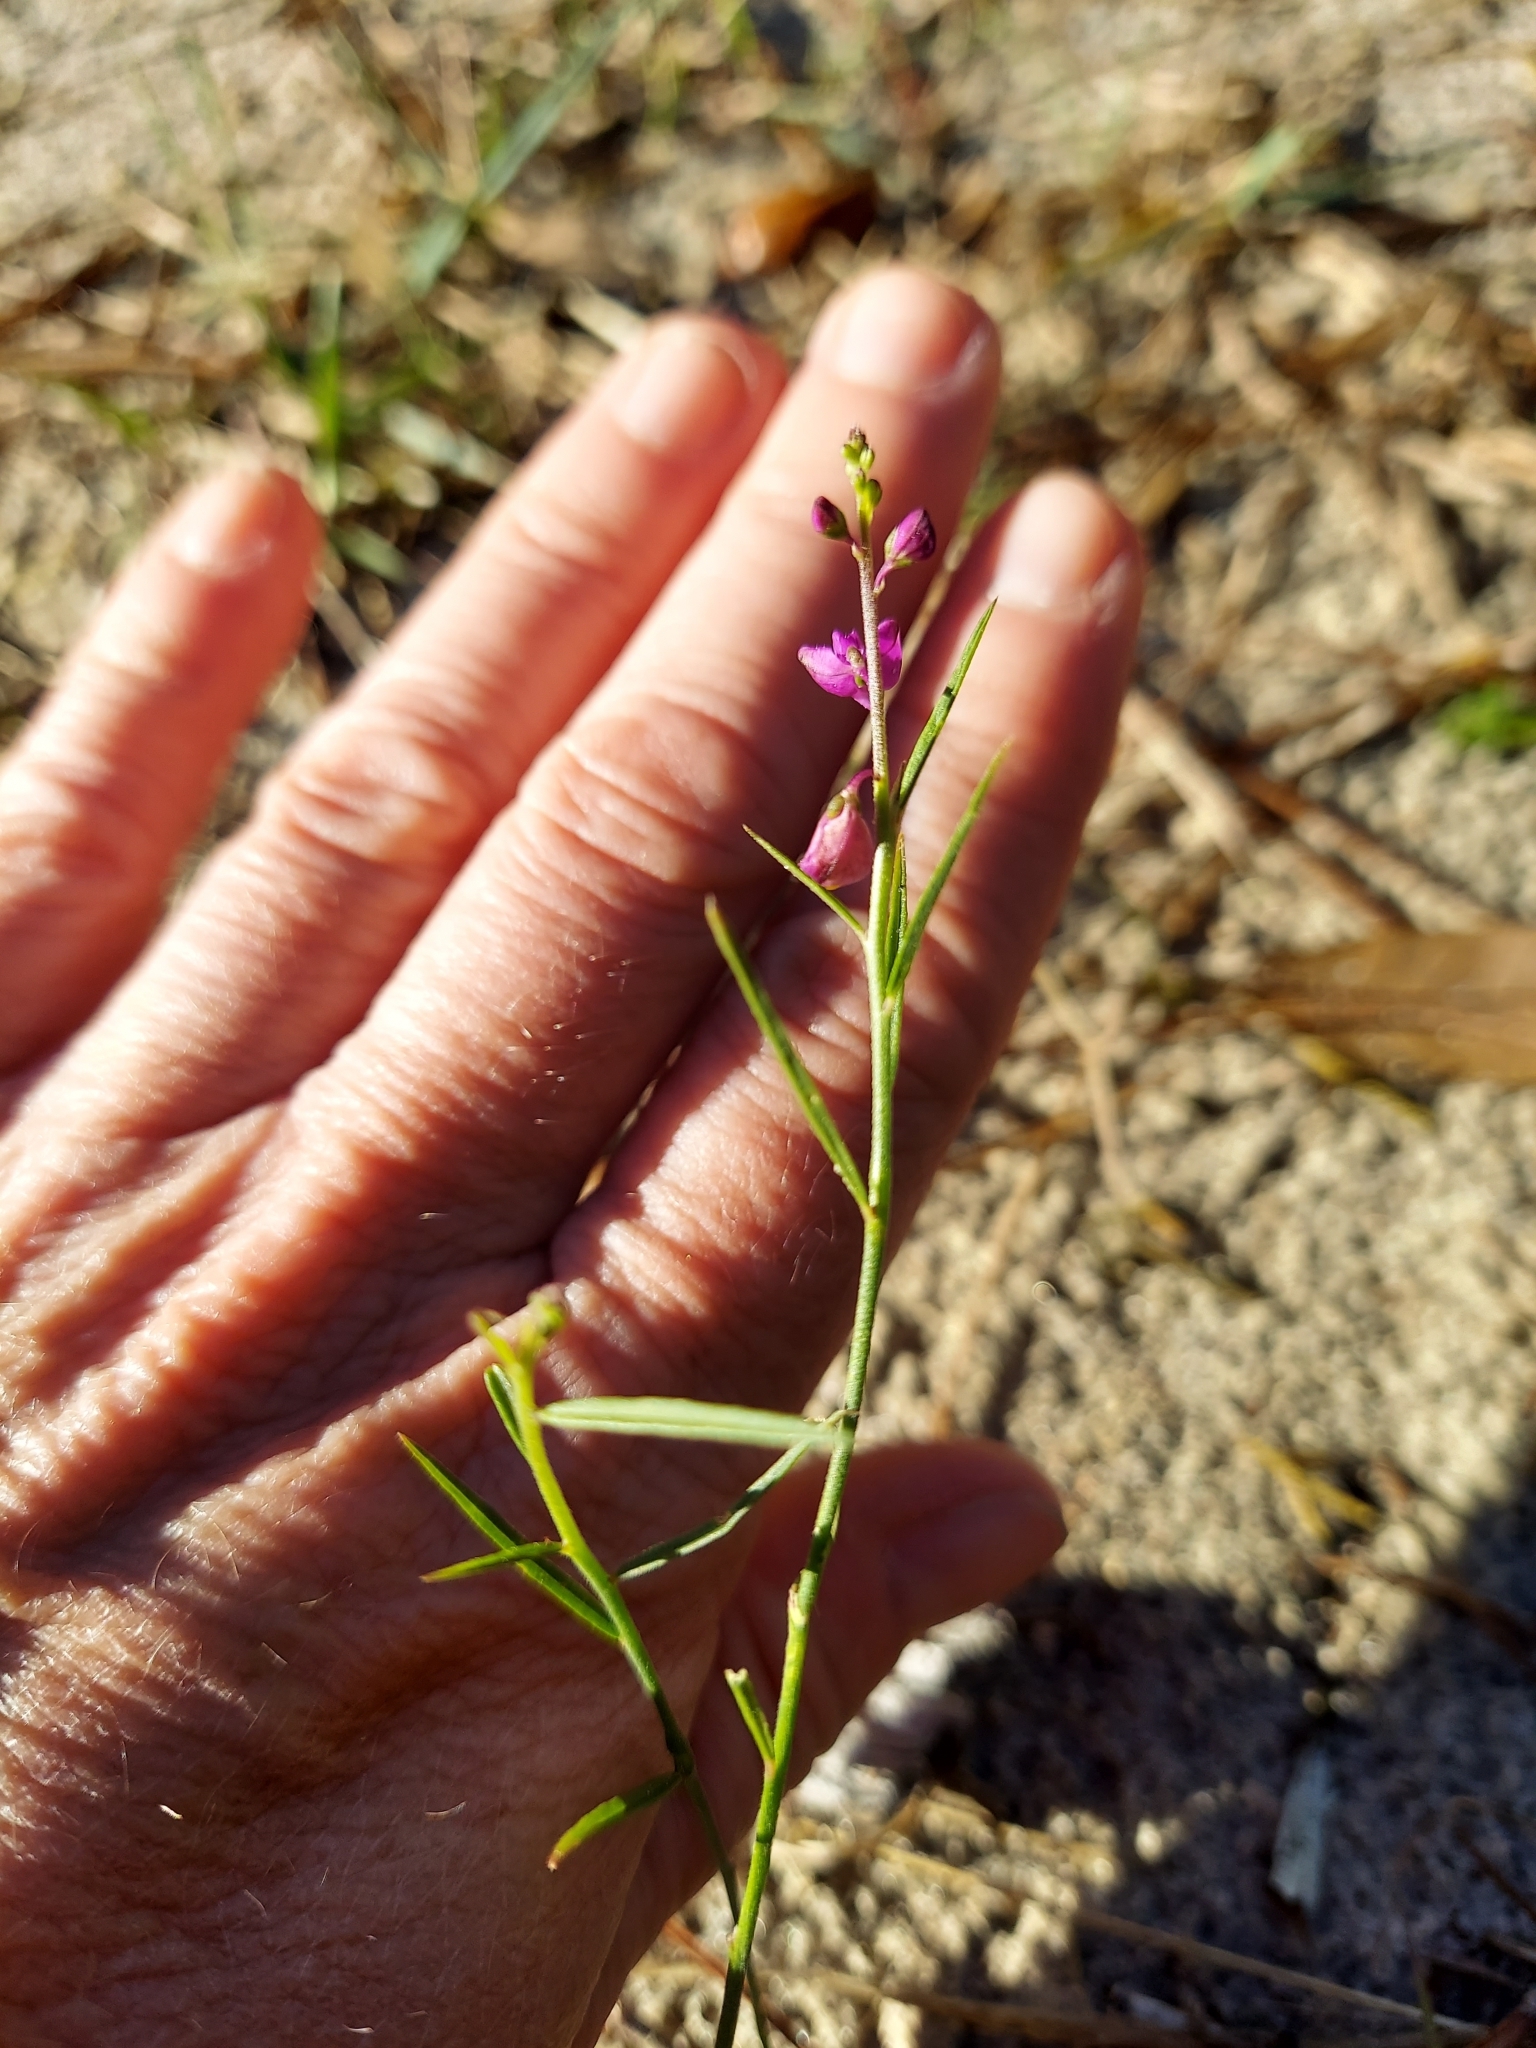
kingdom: Plantae
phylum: Tracheophyta
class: Magnoliopsida
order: Fabales
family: Polygalaceae
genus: Asemeia
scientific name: Asemeia grandiflora
